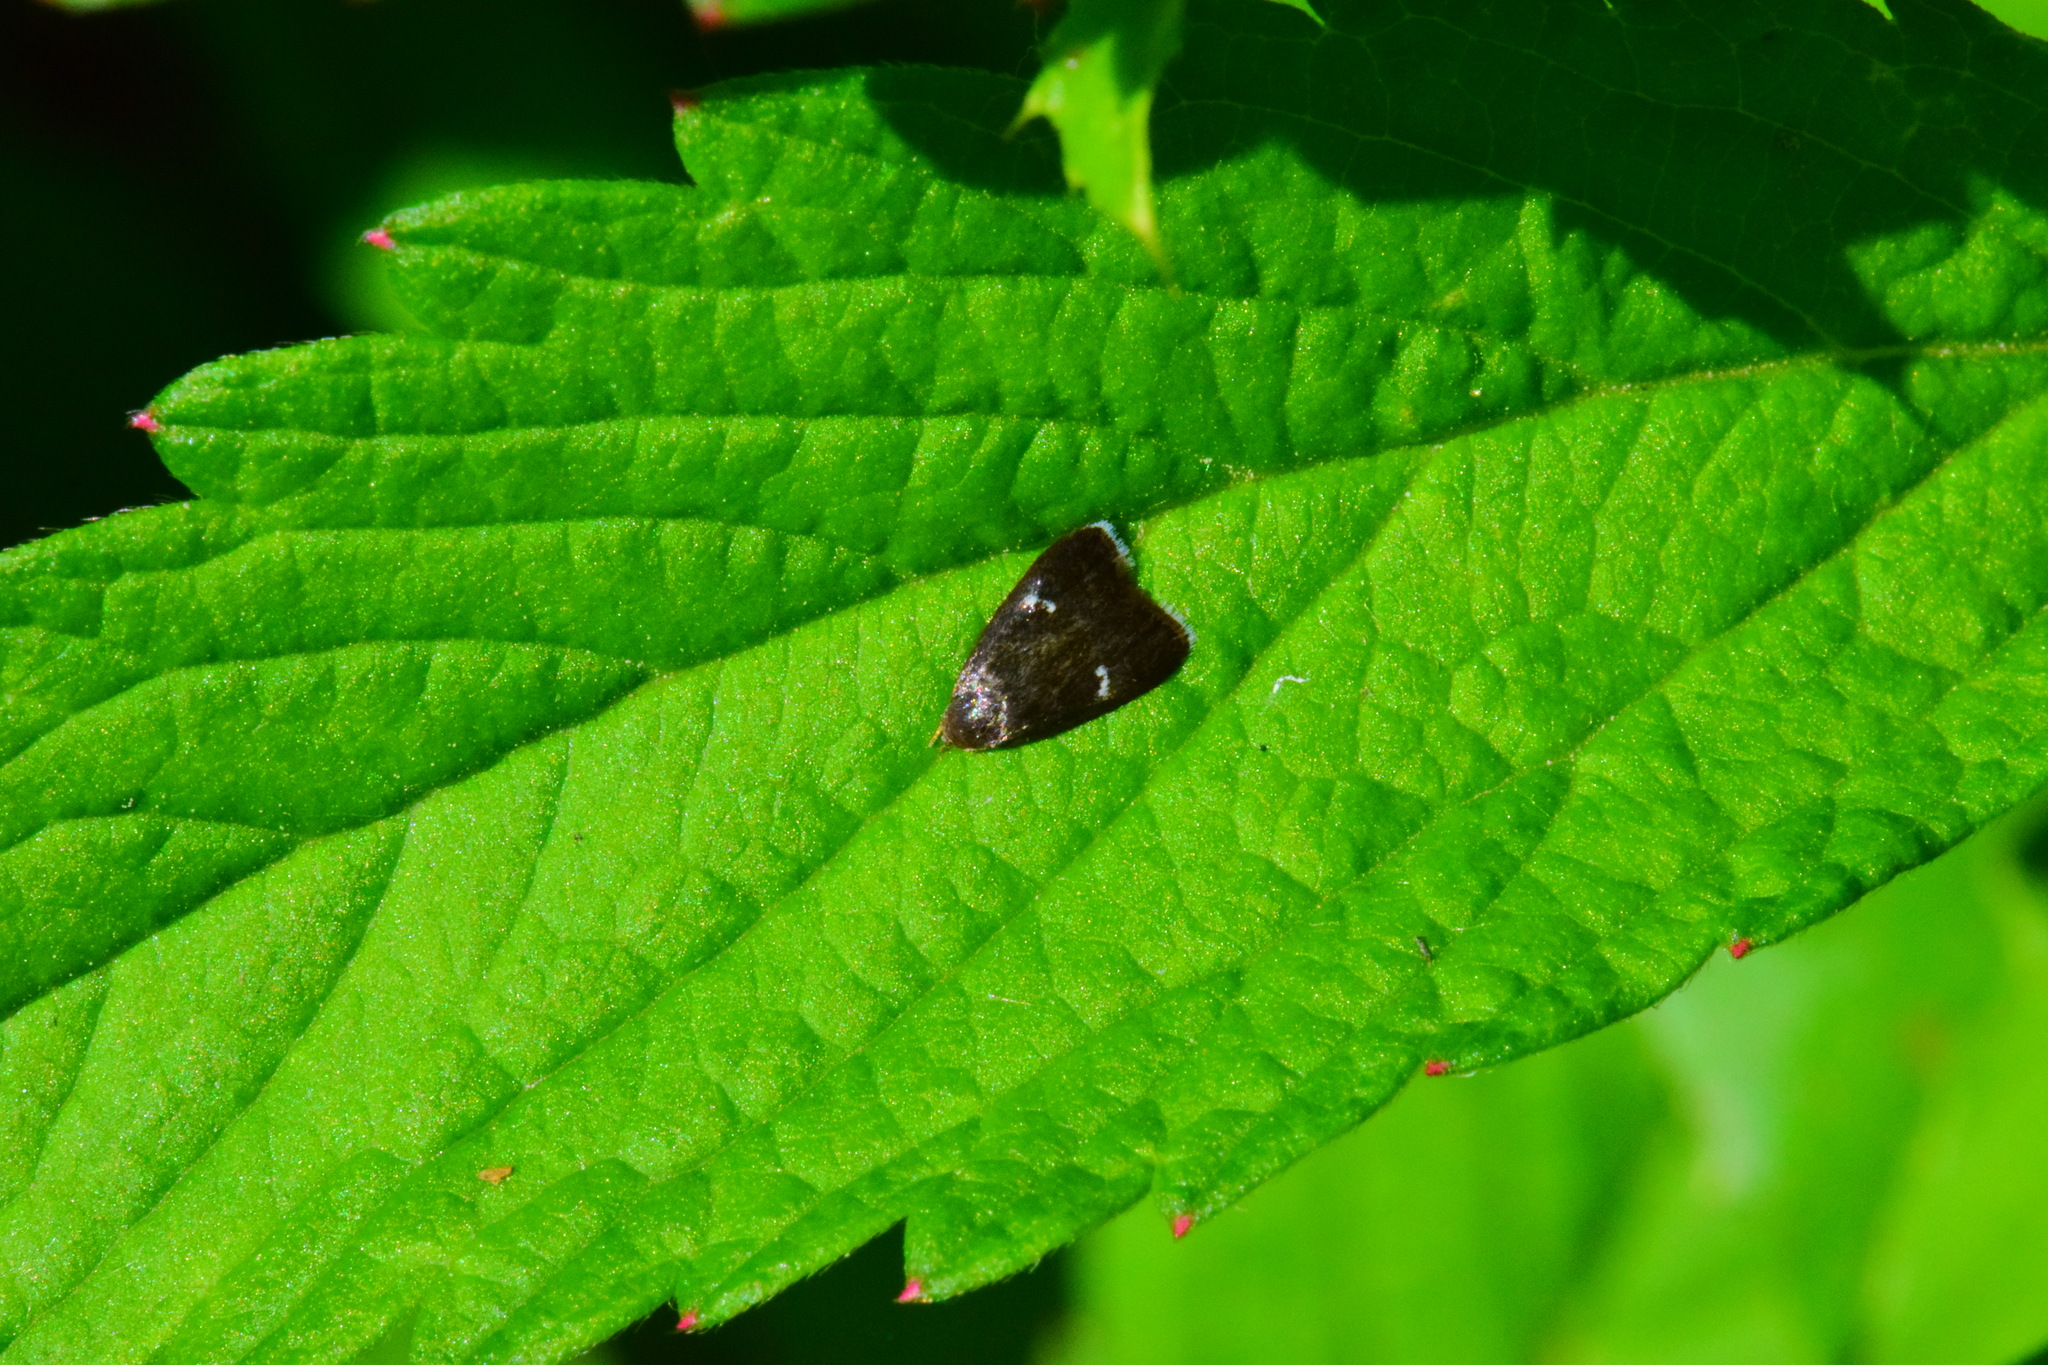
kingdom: Animalia
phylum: Arthropoda
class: Insecta
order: Lepidoptera
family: Depressariidae
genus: Menesta
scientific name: Menesta tortriciformella
